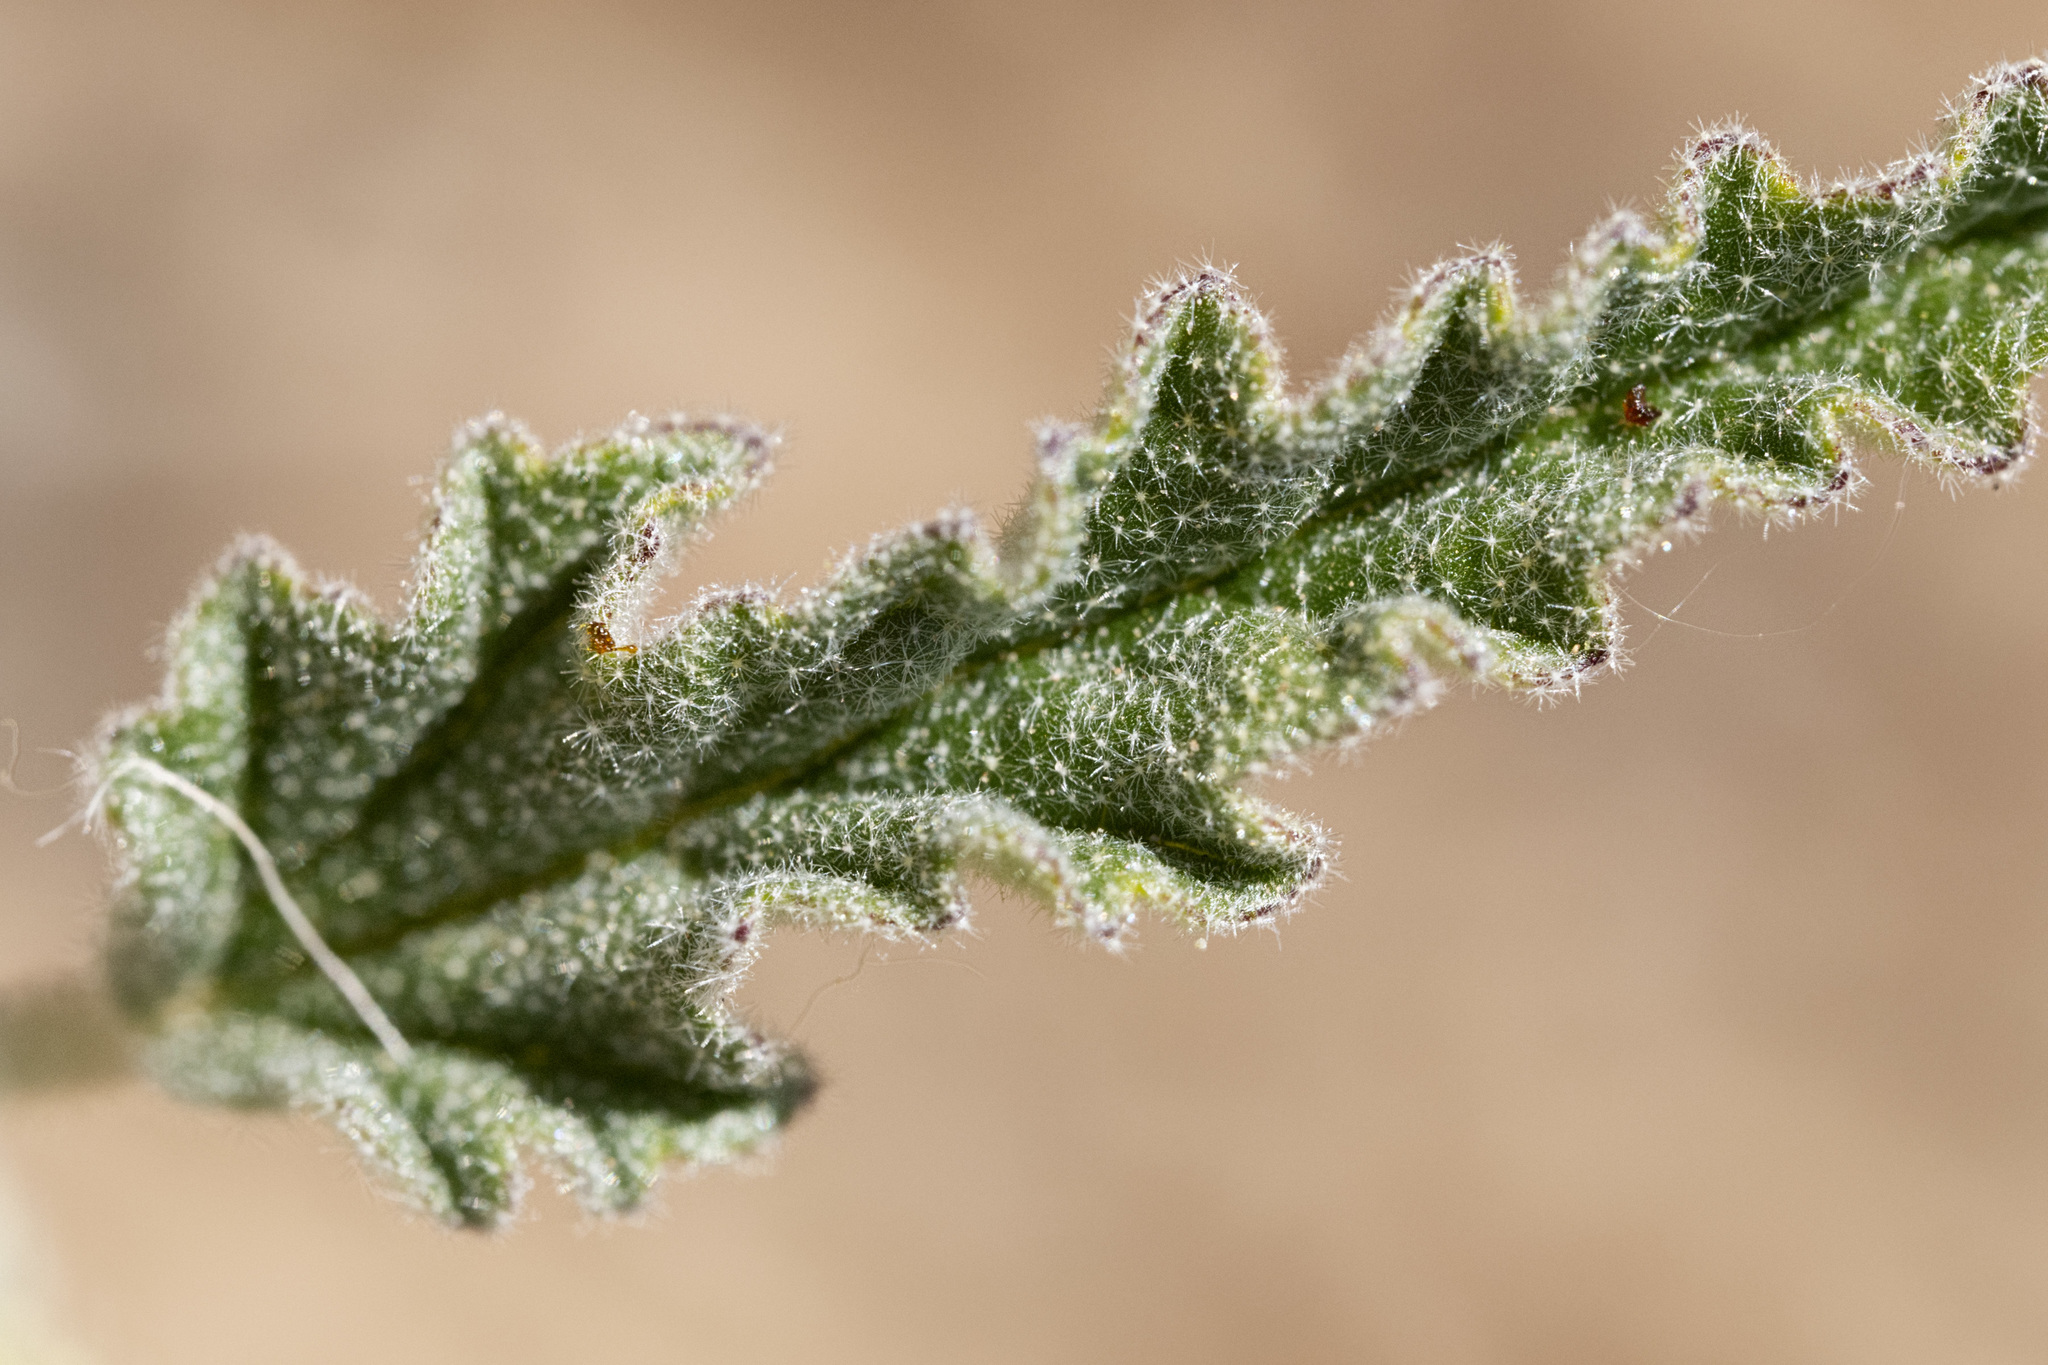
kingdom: Plantae
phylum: Tracheophyta
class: Magnoliopsida
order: Malvales
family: Malvaceae
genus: Sphaeralcea
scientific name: Sphaeralcea hastulata
